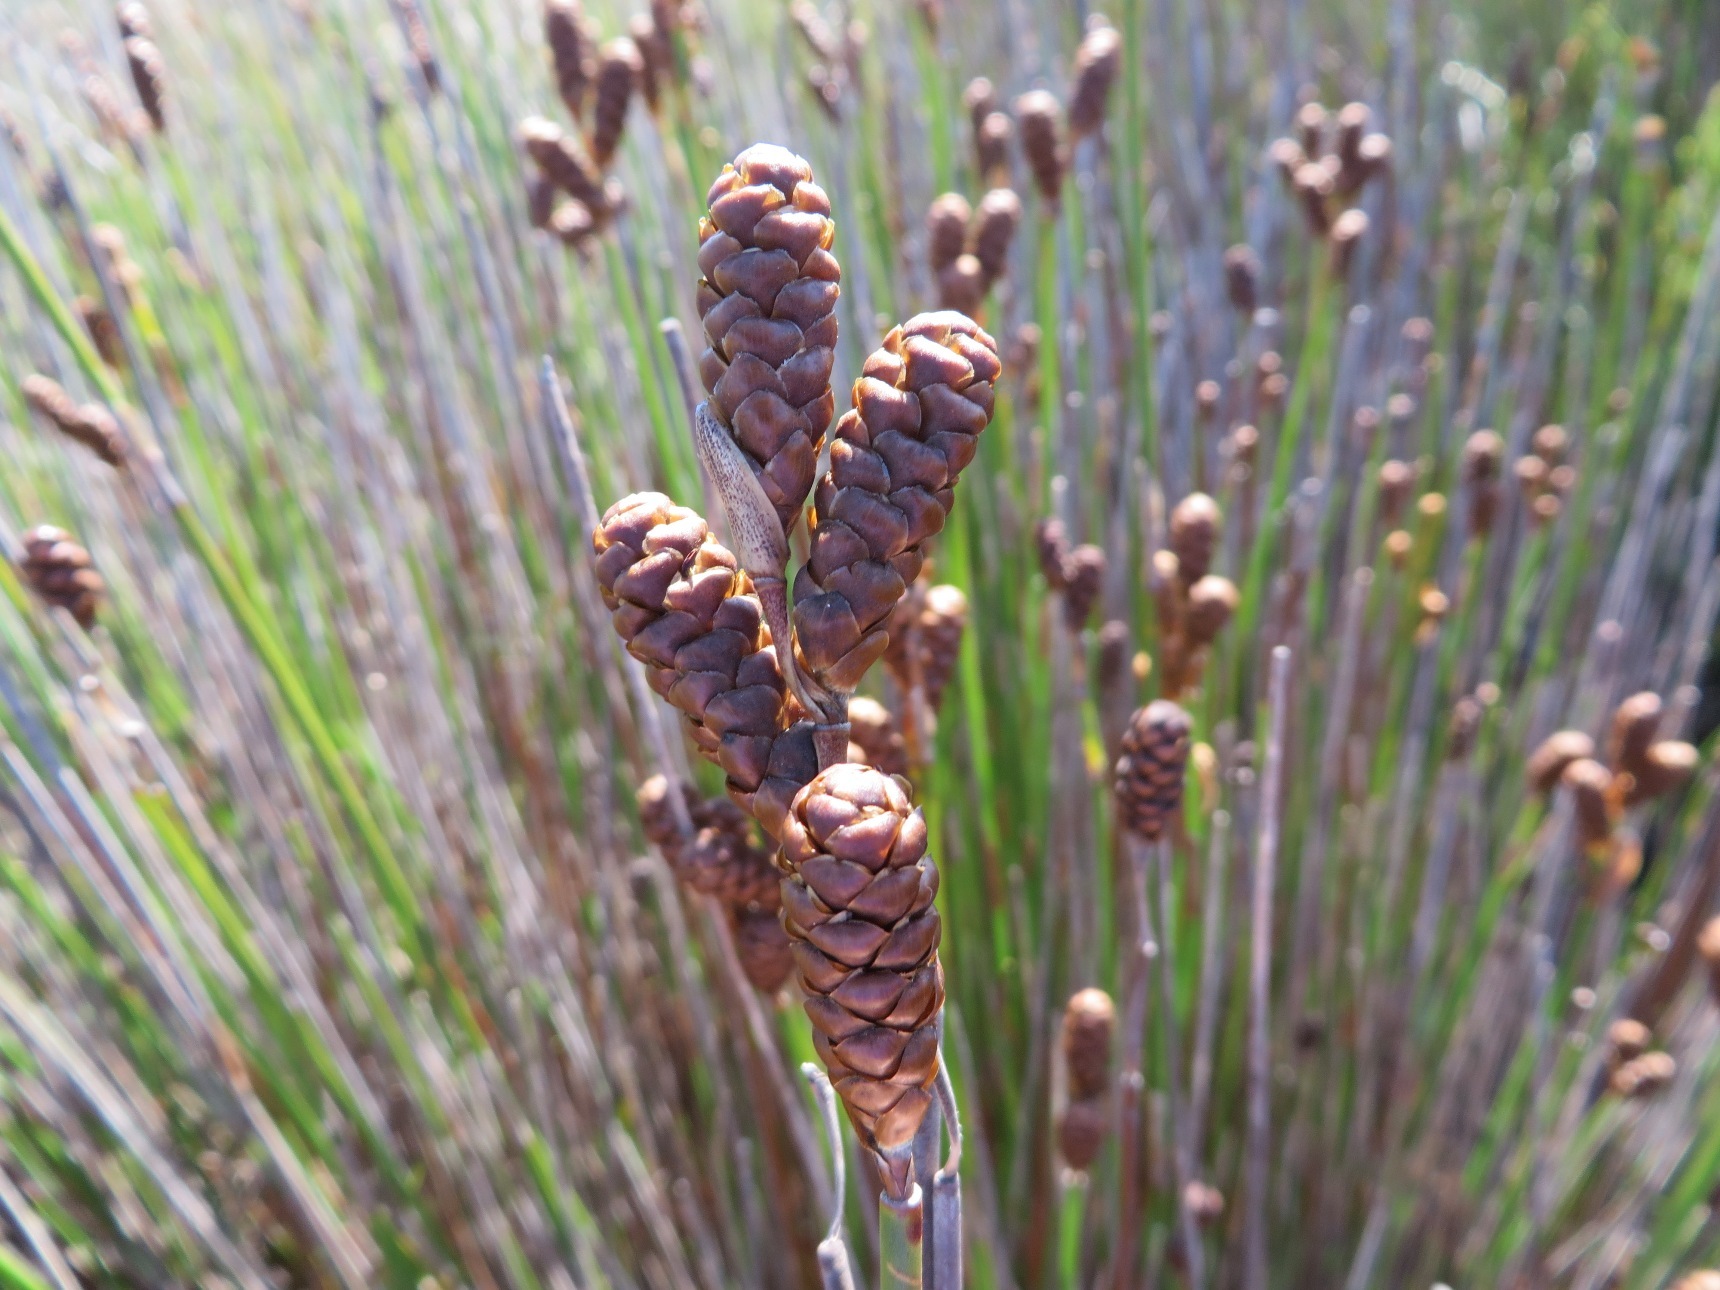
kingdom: Plantae
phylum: Tracheophyta
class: Liliopsida
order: Poales
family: Restionaceae
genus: Nevillea
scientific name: Nevillea obtusissimus
